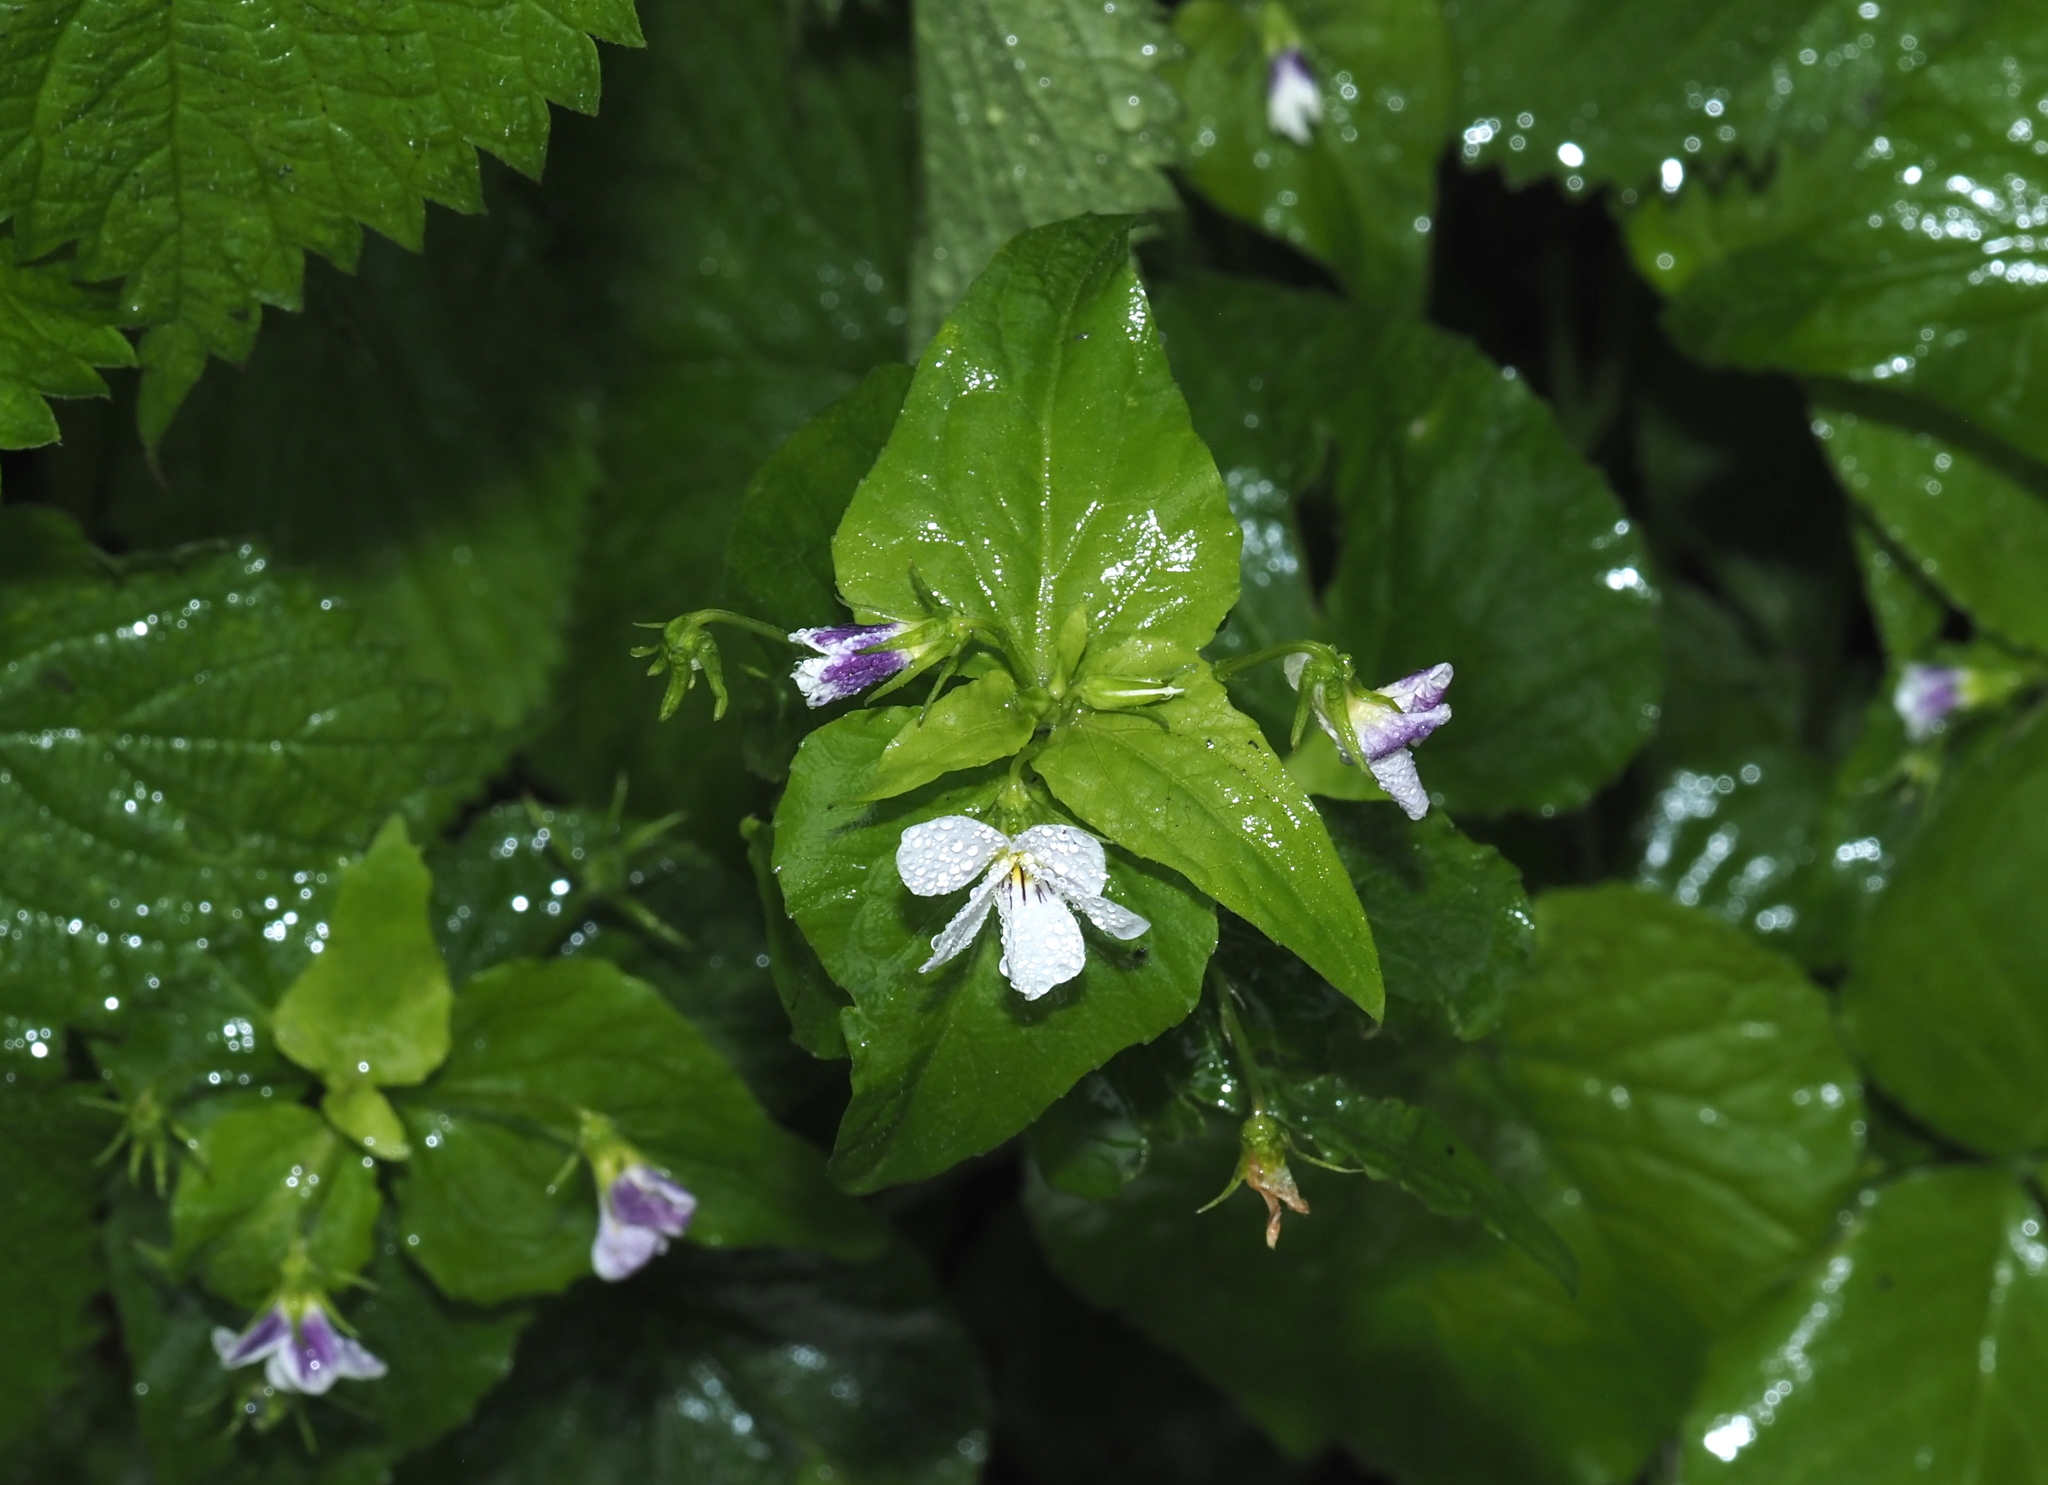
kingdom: Plantae
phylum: Tracheophyta
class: Magnoliopsida
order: Malpighiales
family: Violaceae
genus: Viola
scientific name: Viola canadensis
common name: Canada violet
